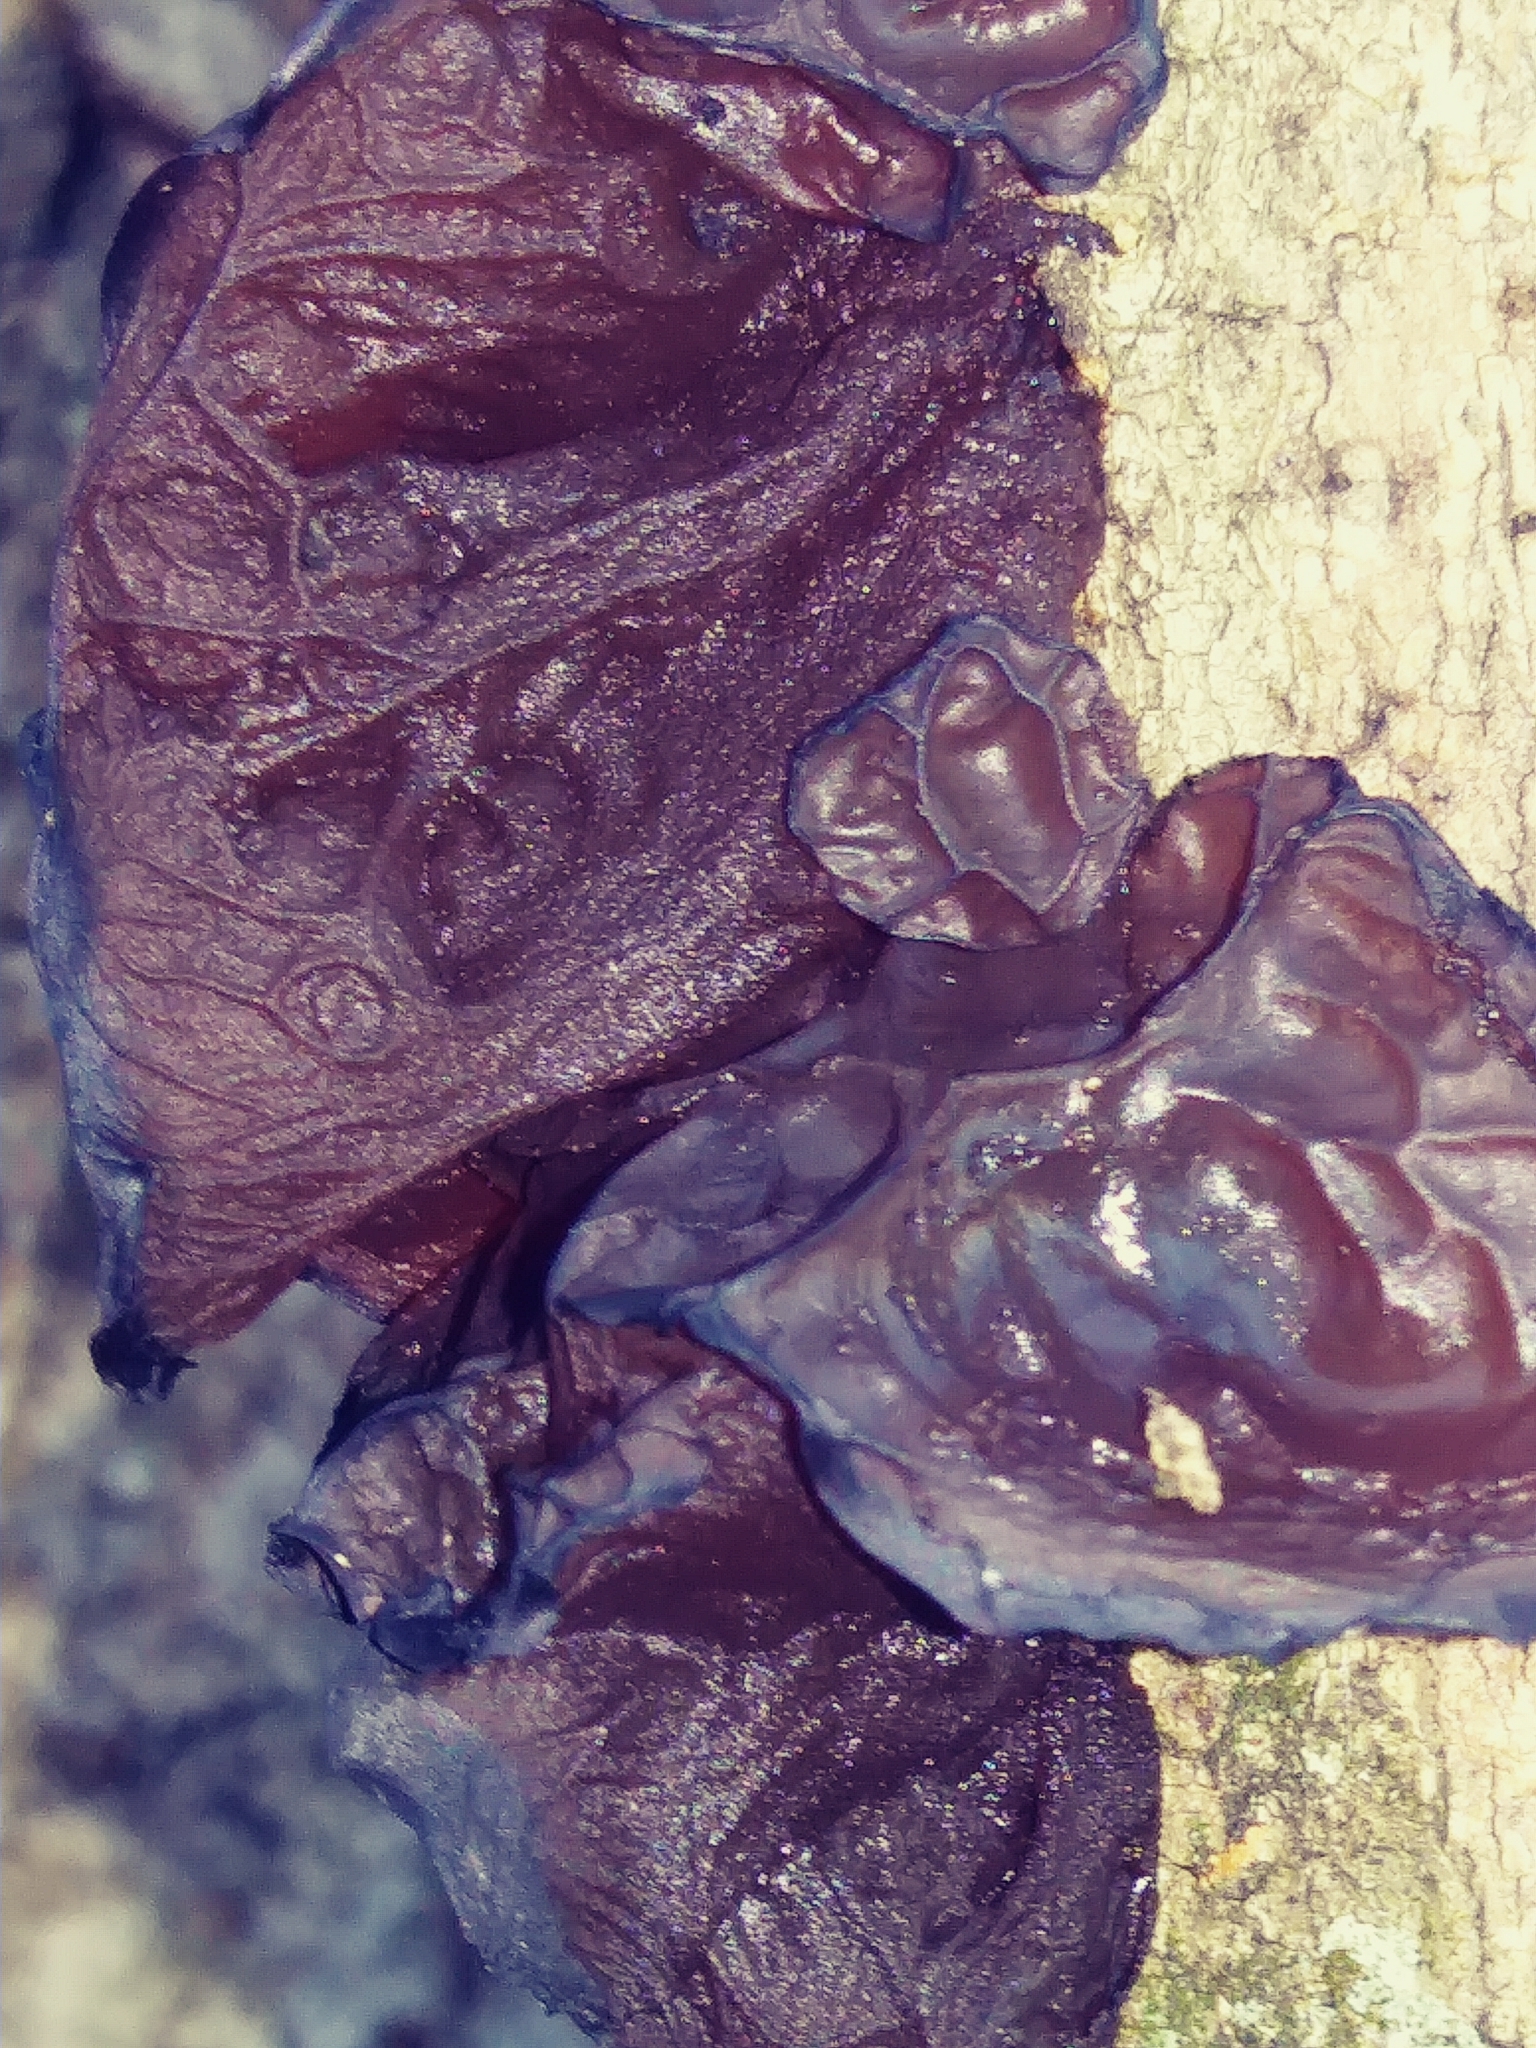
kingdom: Fungi
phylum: Basidiomycota
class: Agaricomycetes
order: Auriculariales
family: Auriculariaceae
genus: Exidia
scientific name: Exidia
